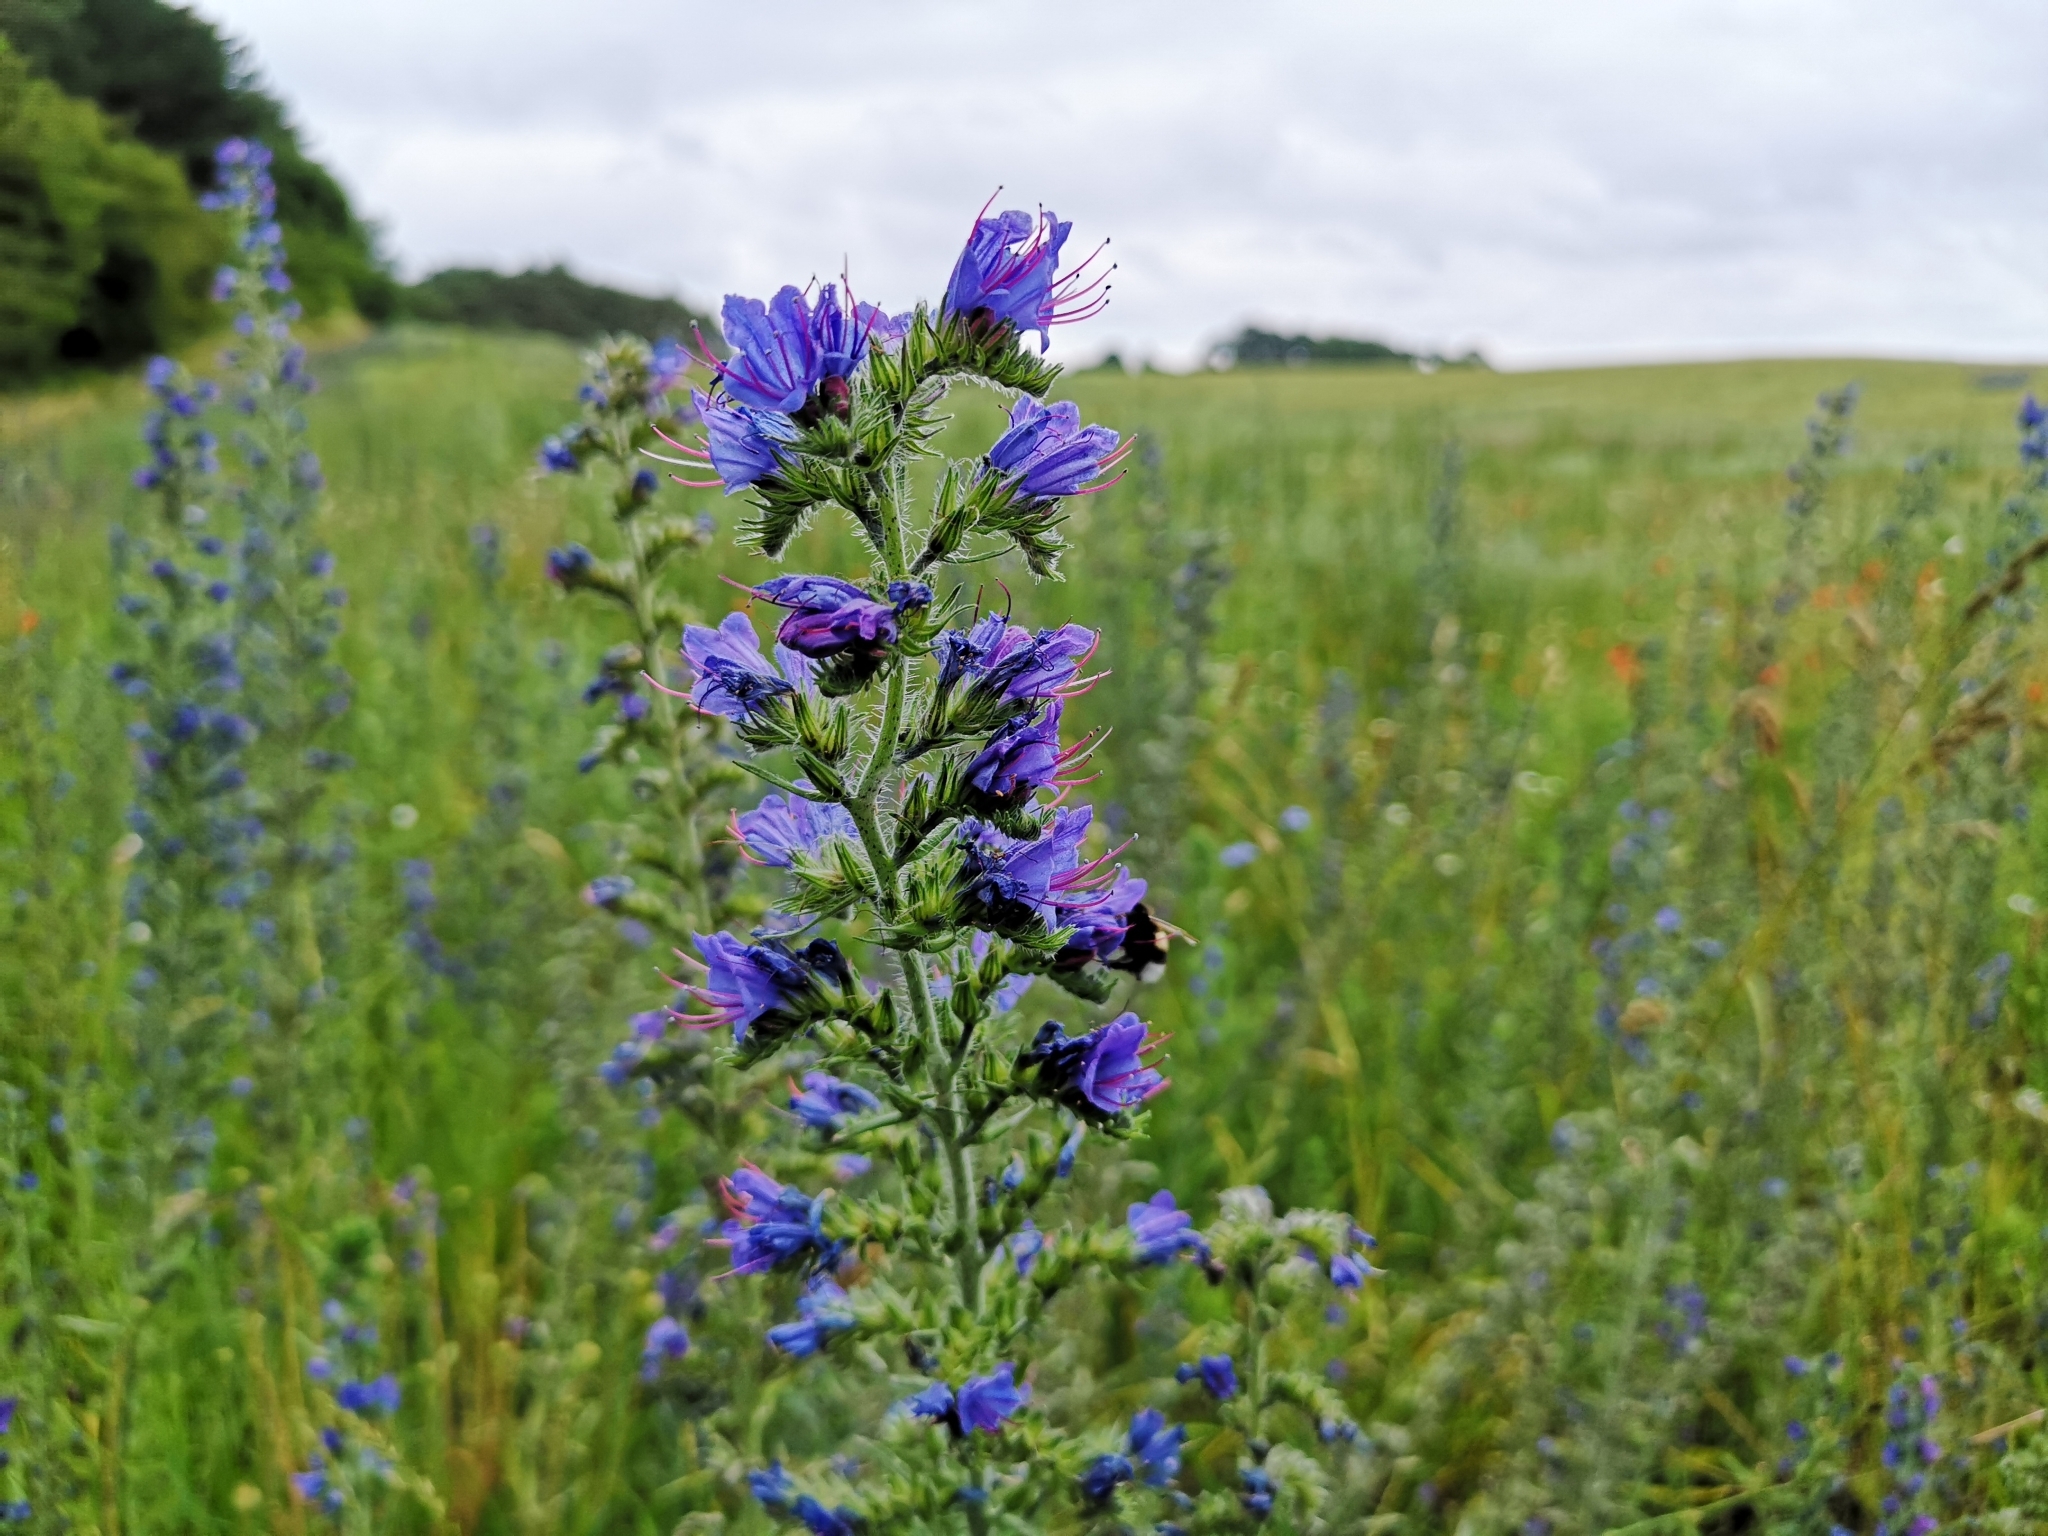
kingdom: Plantae
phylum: Tracheophyta
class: Magnoliopsida
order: Boraginales
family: Boraginaceae
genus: Echium
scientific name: Echium vulgare
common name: Common viper's bugloss
